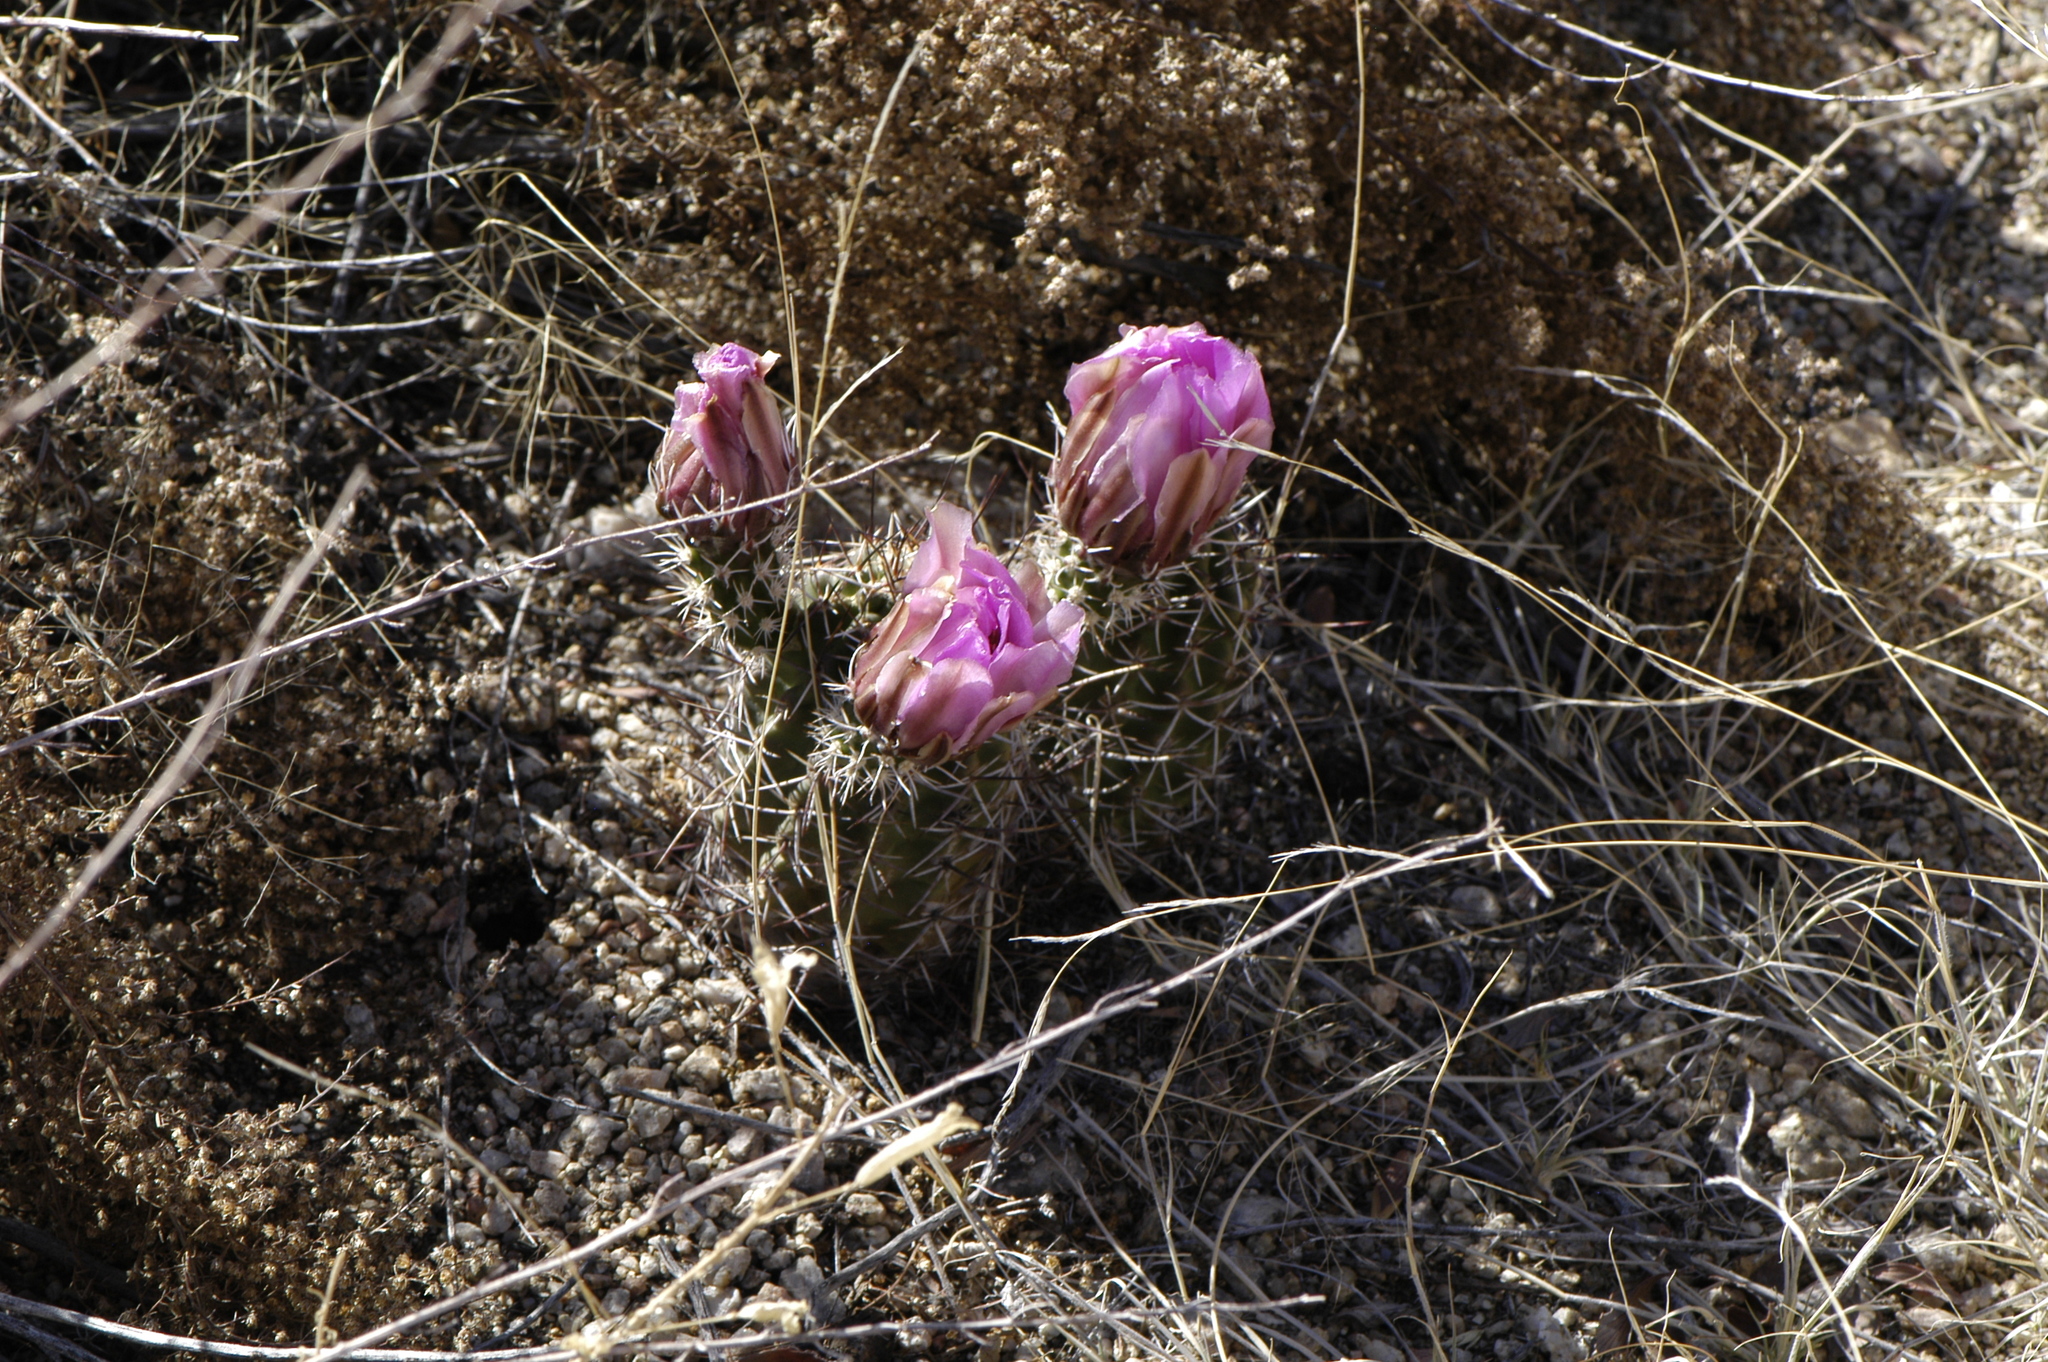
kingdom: Plantae
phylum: Tracheophyta
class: Magnoliopsida
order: Caryophyllales
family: Cactaceae
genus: Echinocereus
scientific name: Echinocereus fendleri
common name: Fendler's hedgehog cactus
